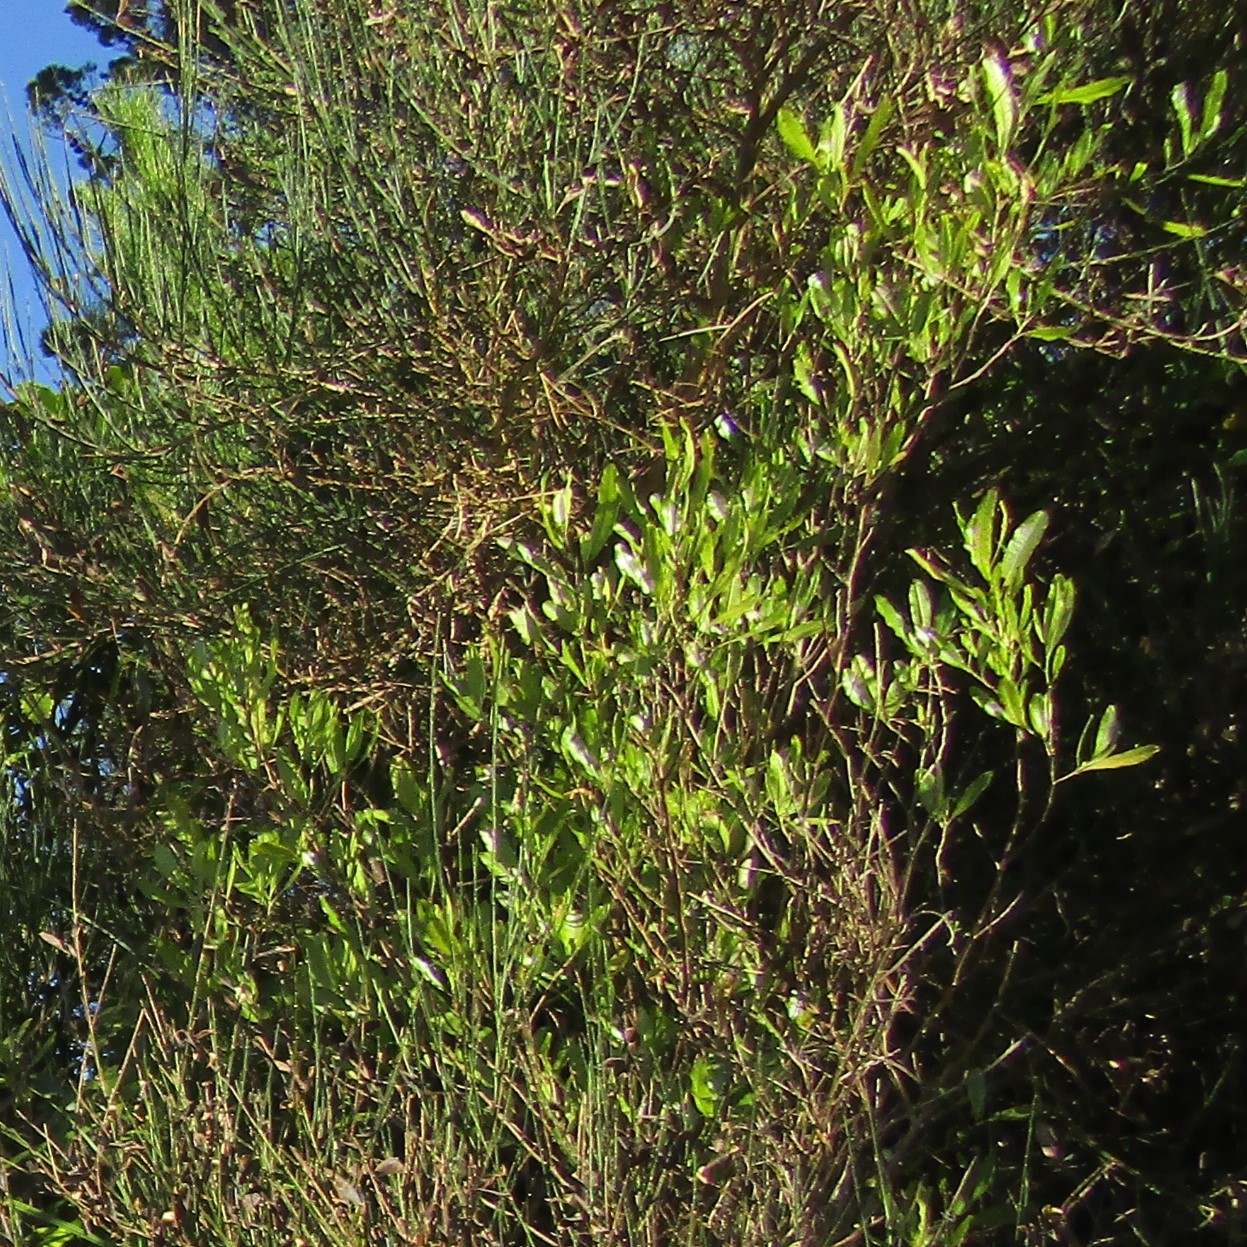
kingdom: Plantae
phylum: Tracheophyta
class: Magnoliopsida
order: Sapindales
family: Sapindaceae
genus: Dodonaea
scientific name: Dodonaea viscosa
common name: Hopbush
